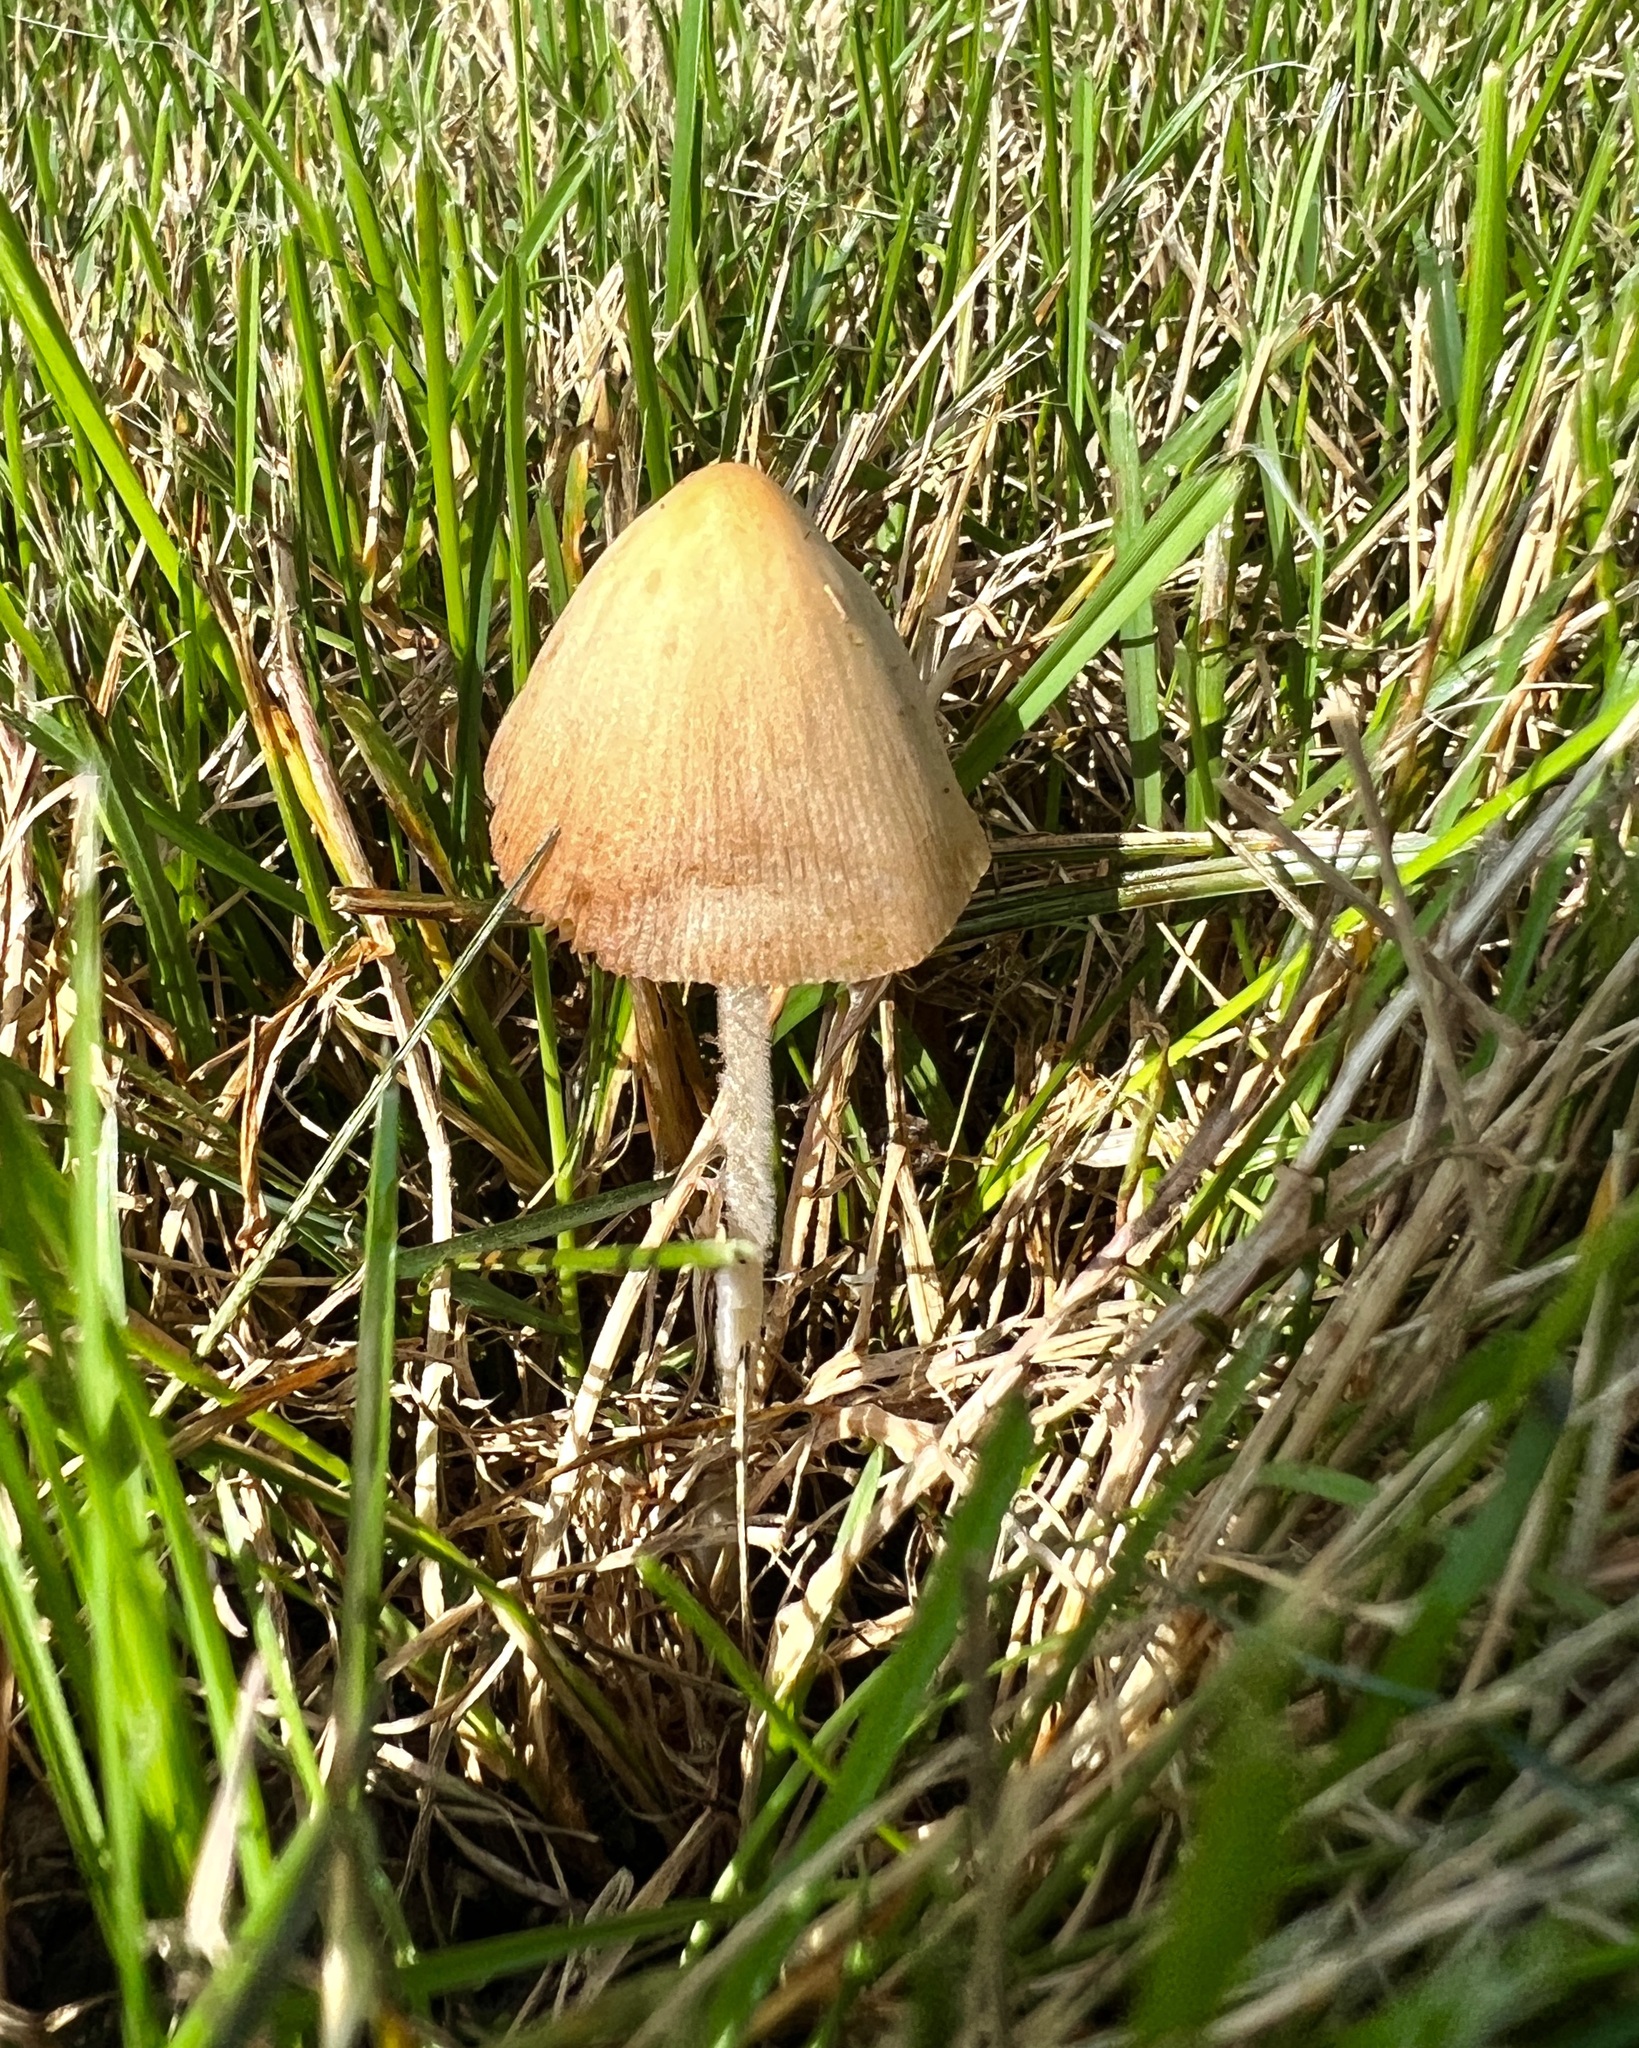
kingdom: Fungi
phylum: Basidiomycota
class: Agaricomycetes
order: Agaricales
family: Bolbitiaceae
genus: Conocybe
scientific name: Conocybe apala
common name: Milky conecap
